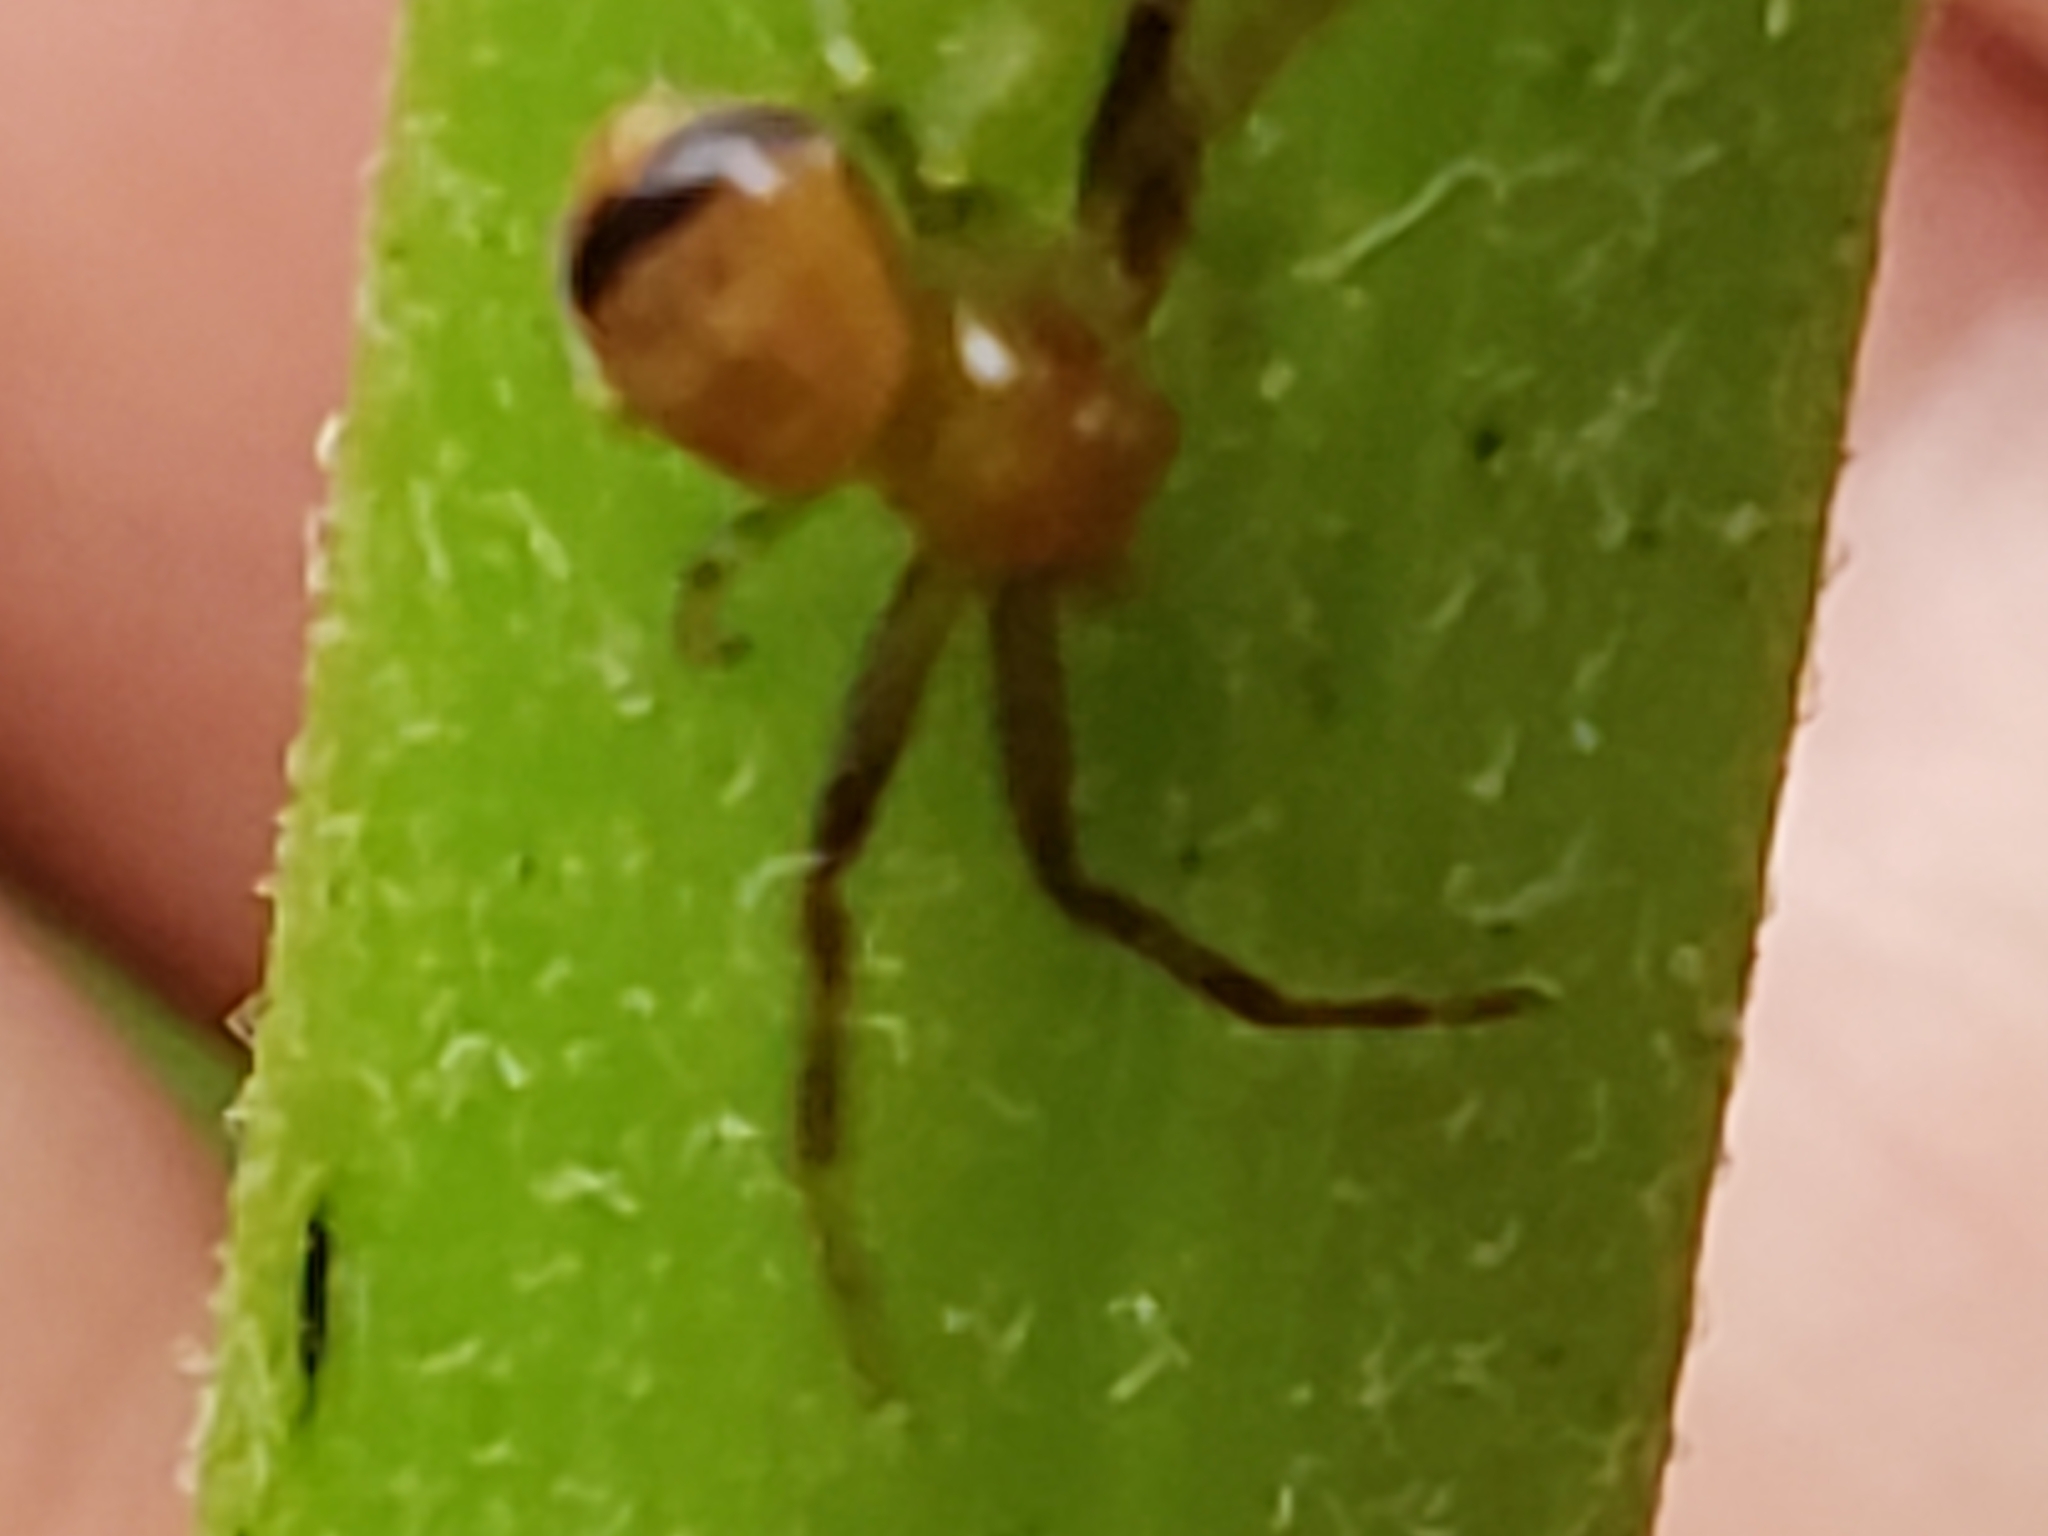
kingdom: Animalia
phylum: Arthropoda
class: Arachnida
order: Araneae
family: Thomisidae
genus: Synema
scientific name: Synema parvulum
